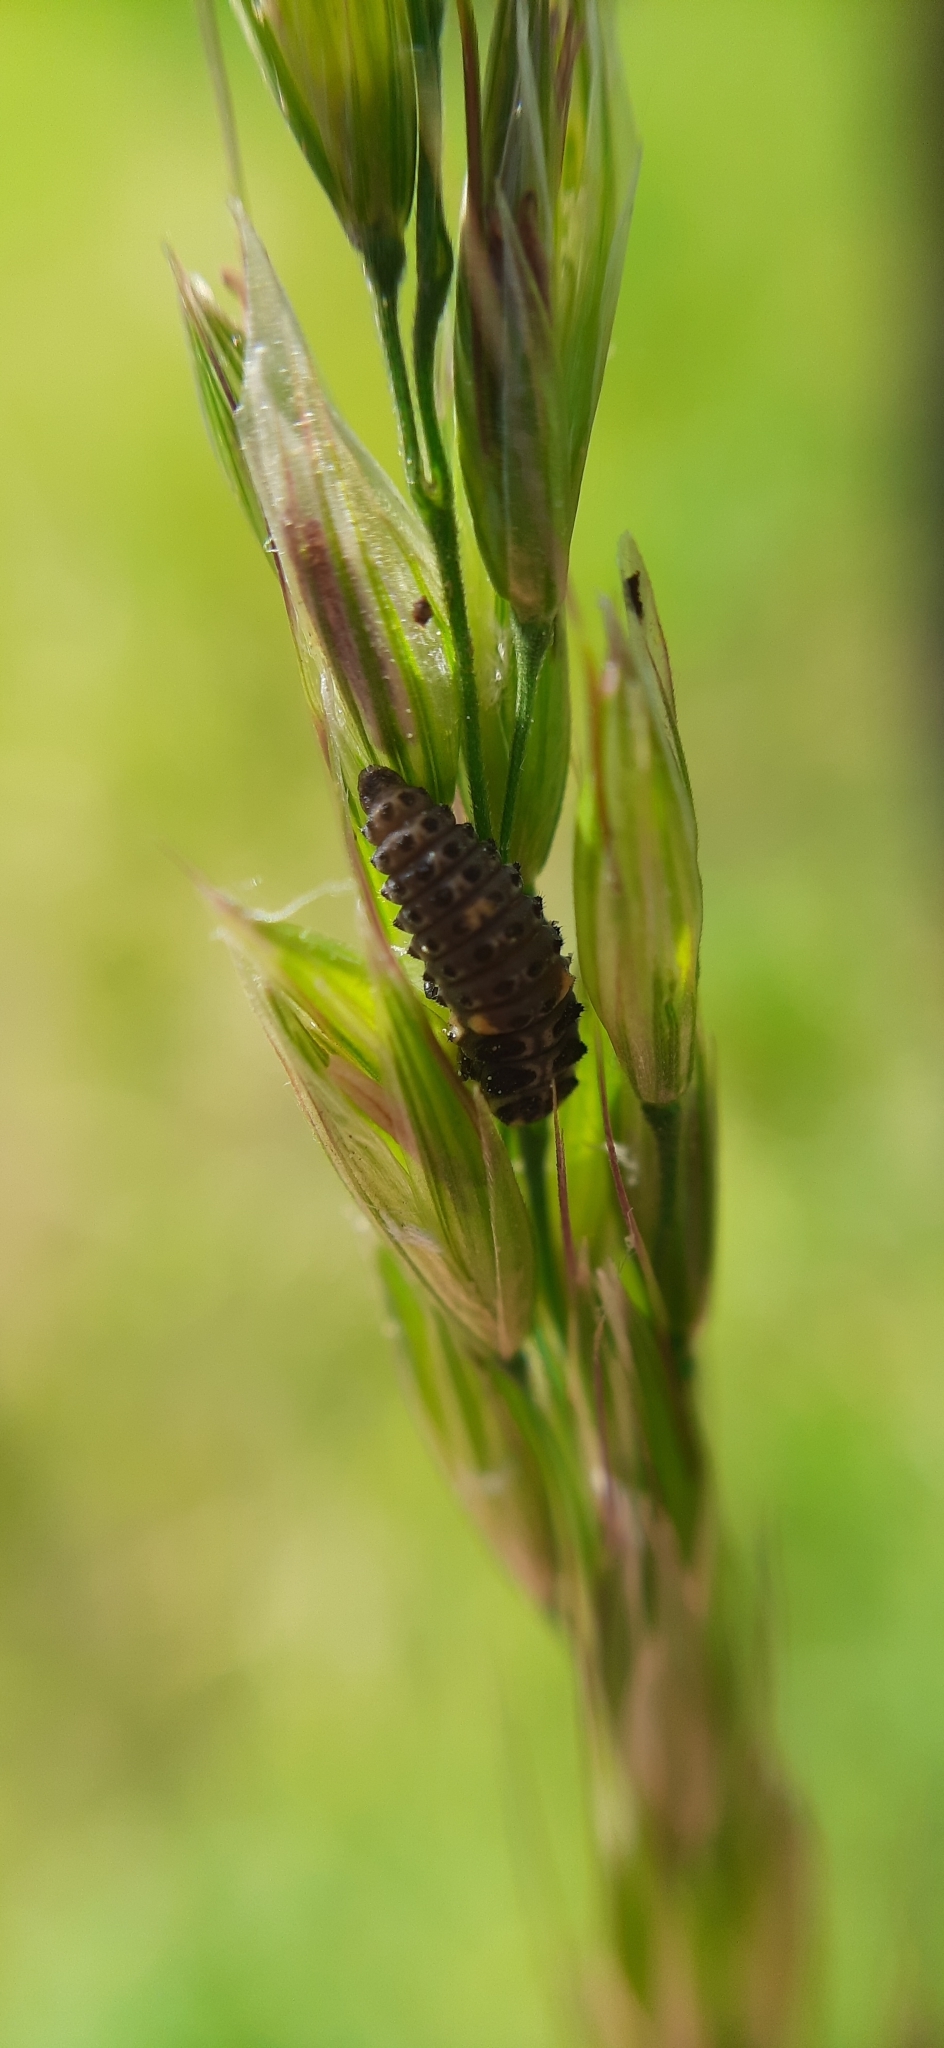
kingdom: Animalia
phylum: Arthropoda
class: Insecta
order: Coleoptera
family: Coccinellidae
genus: Adalia
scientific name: Adalia
